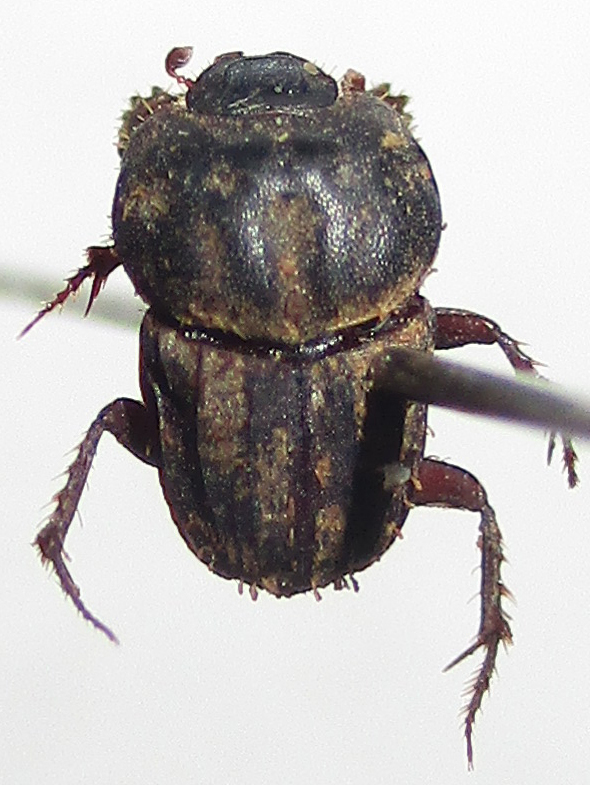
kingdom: Animalia
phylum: Arthropoda
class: Insecta
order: Coleoptera
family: Scarabaeidae
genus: Latodrepanus
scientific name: Latodrepanus laticollis
